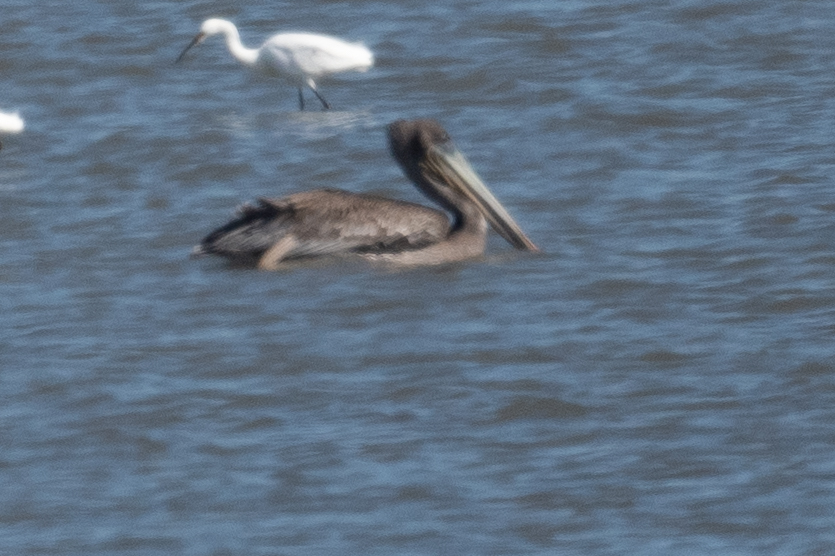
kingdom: Animalia
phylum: Chordata
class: Aves
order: Pelecaniformes
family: Pelecanidae
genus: Pelecanus
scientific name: Pelecanus occidentalis
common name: Brown pelican
